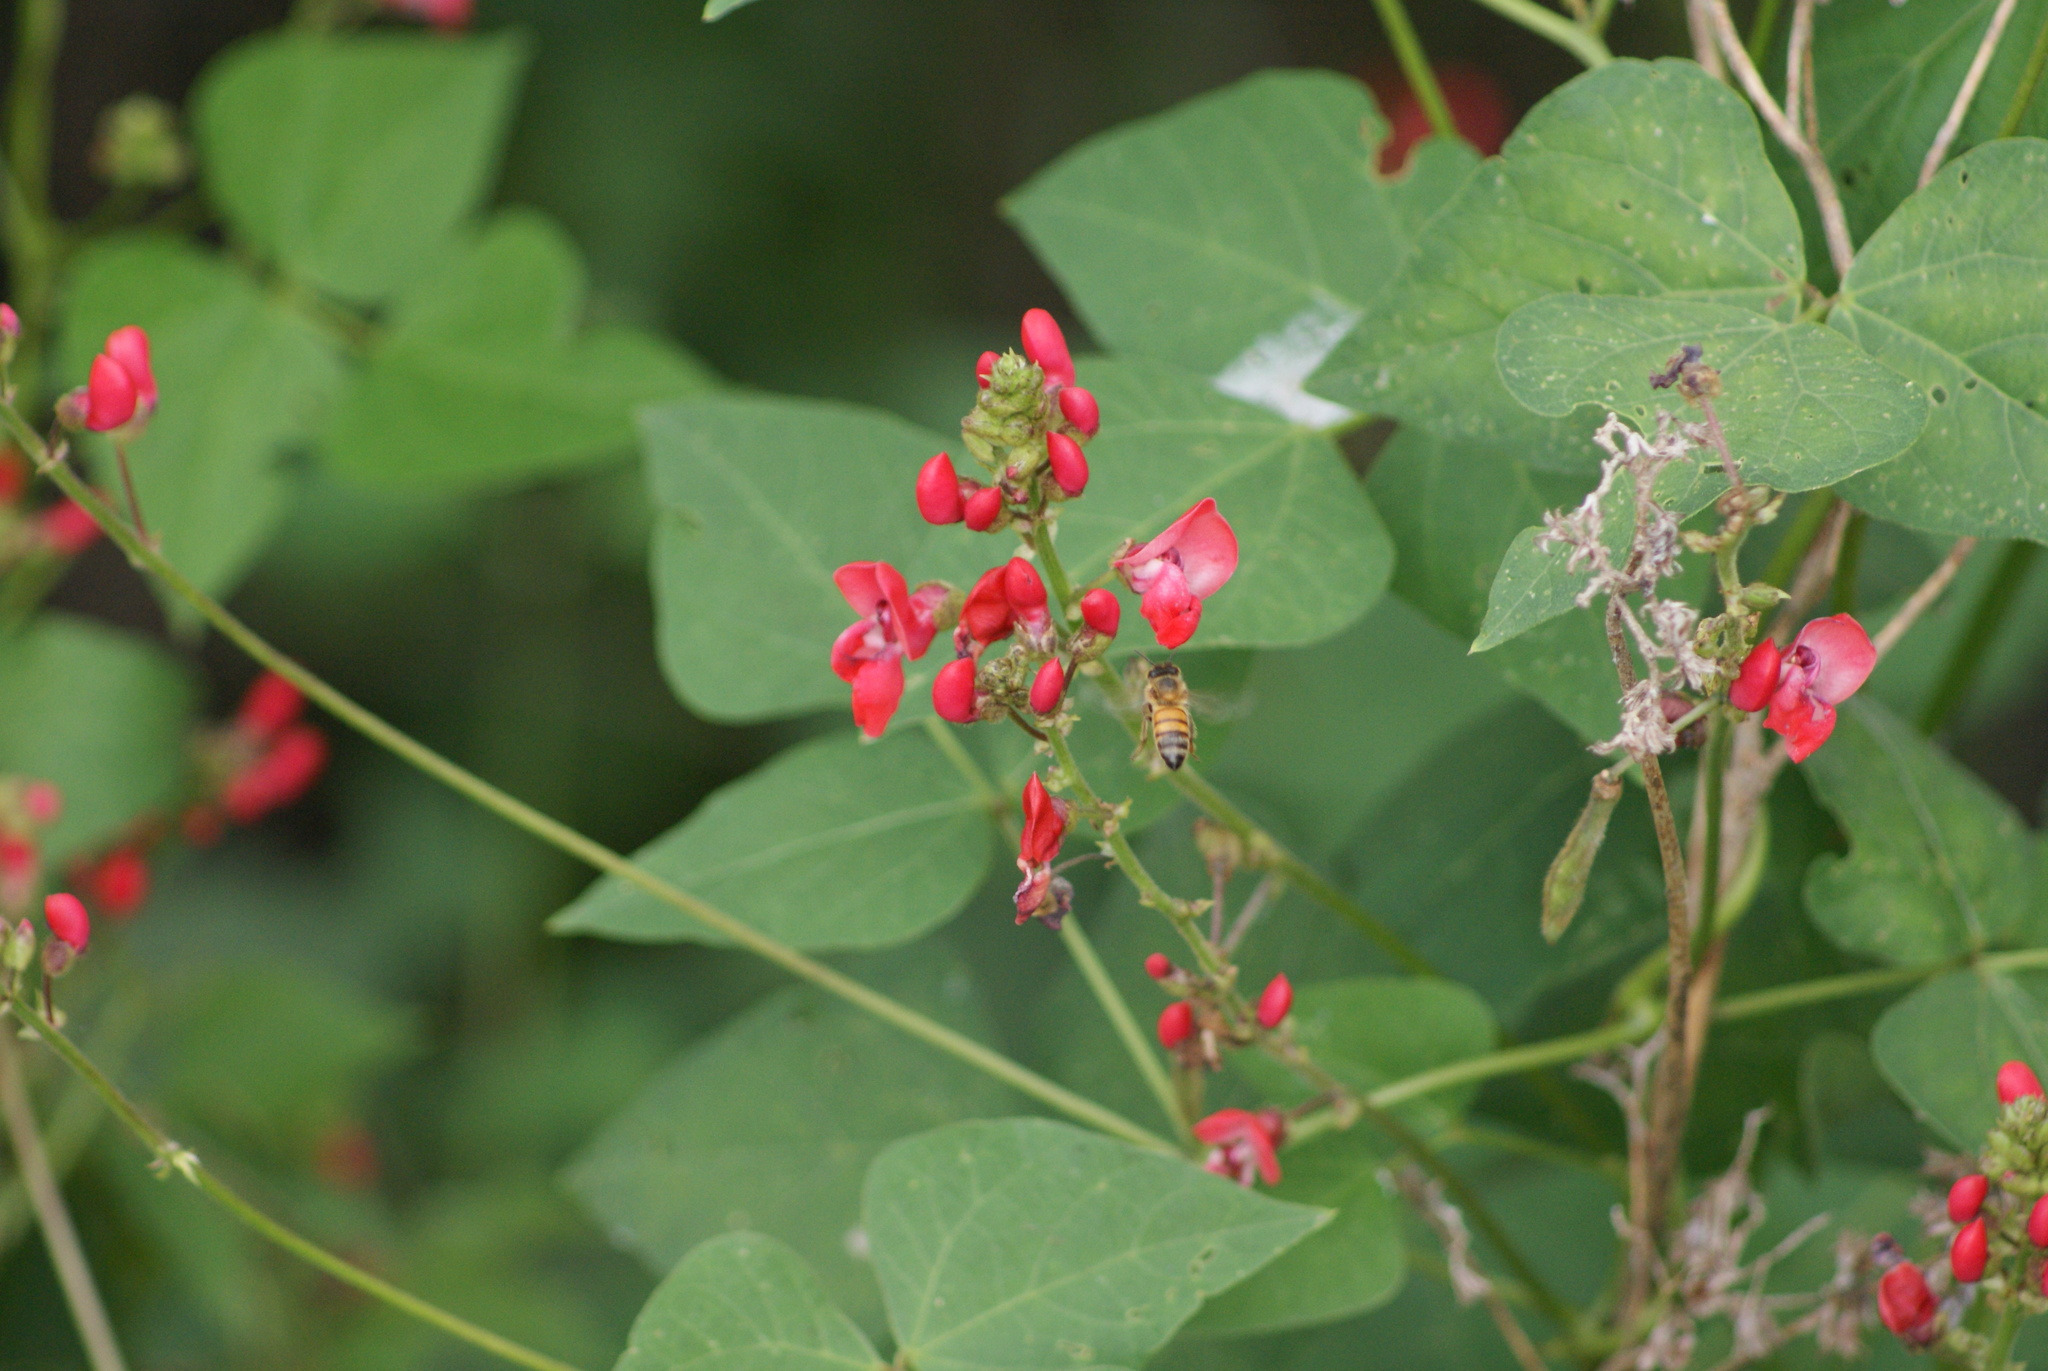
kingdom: Plantae
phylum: Tracheophyta
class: Magnoliopsida
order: Fabales
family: Fabaceae
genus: Phaseolus
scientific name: Phaseolus coccineus
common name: Runner bean
